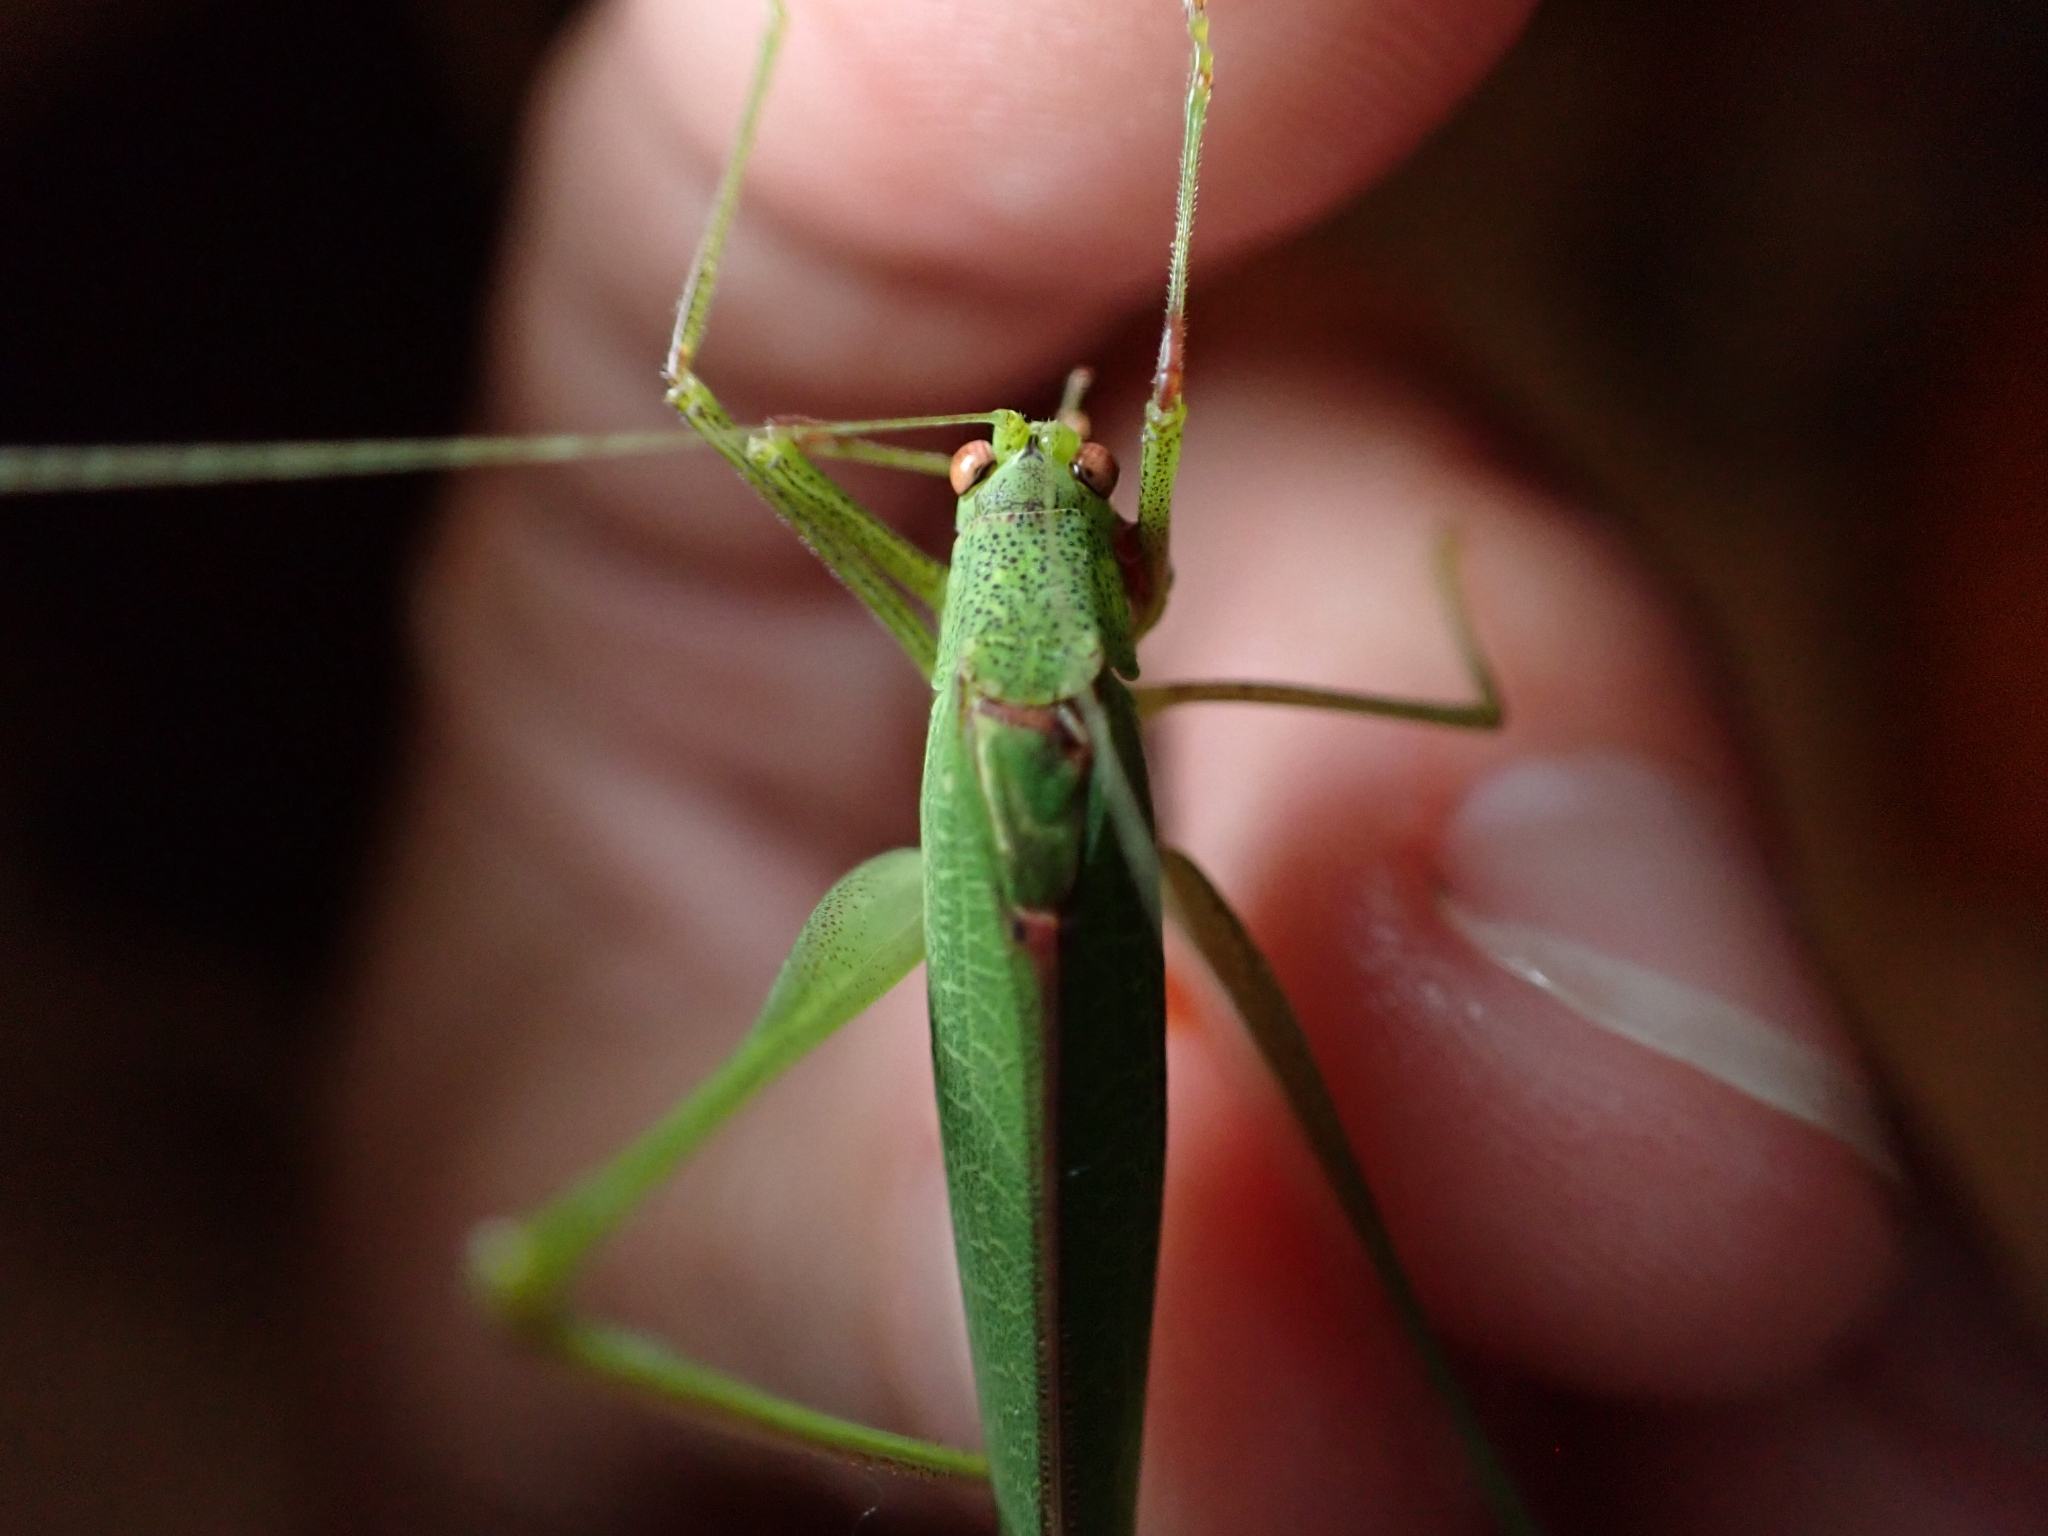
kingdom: Animalia
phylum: Arthropoda
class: Insecta
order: Orthoptera
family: Tettigoniidae
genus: Phaneroptera
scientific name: Phaneroptera nana
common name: Southern sickle bush-cricket
